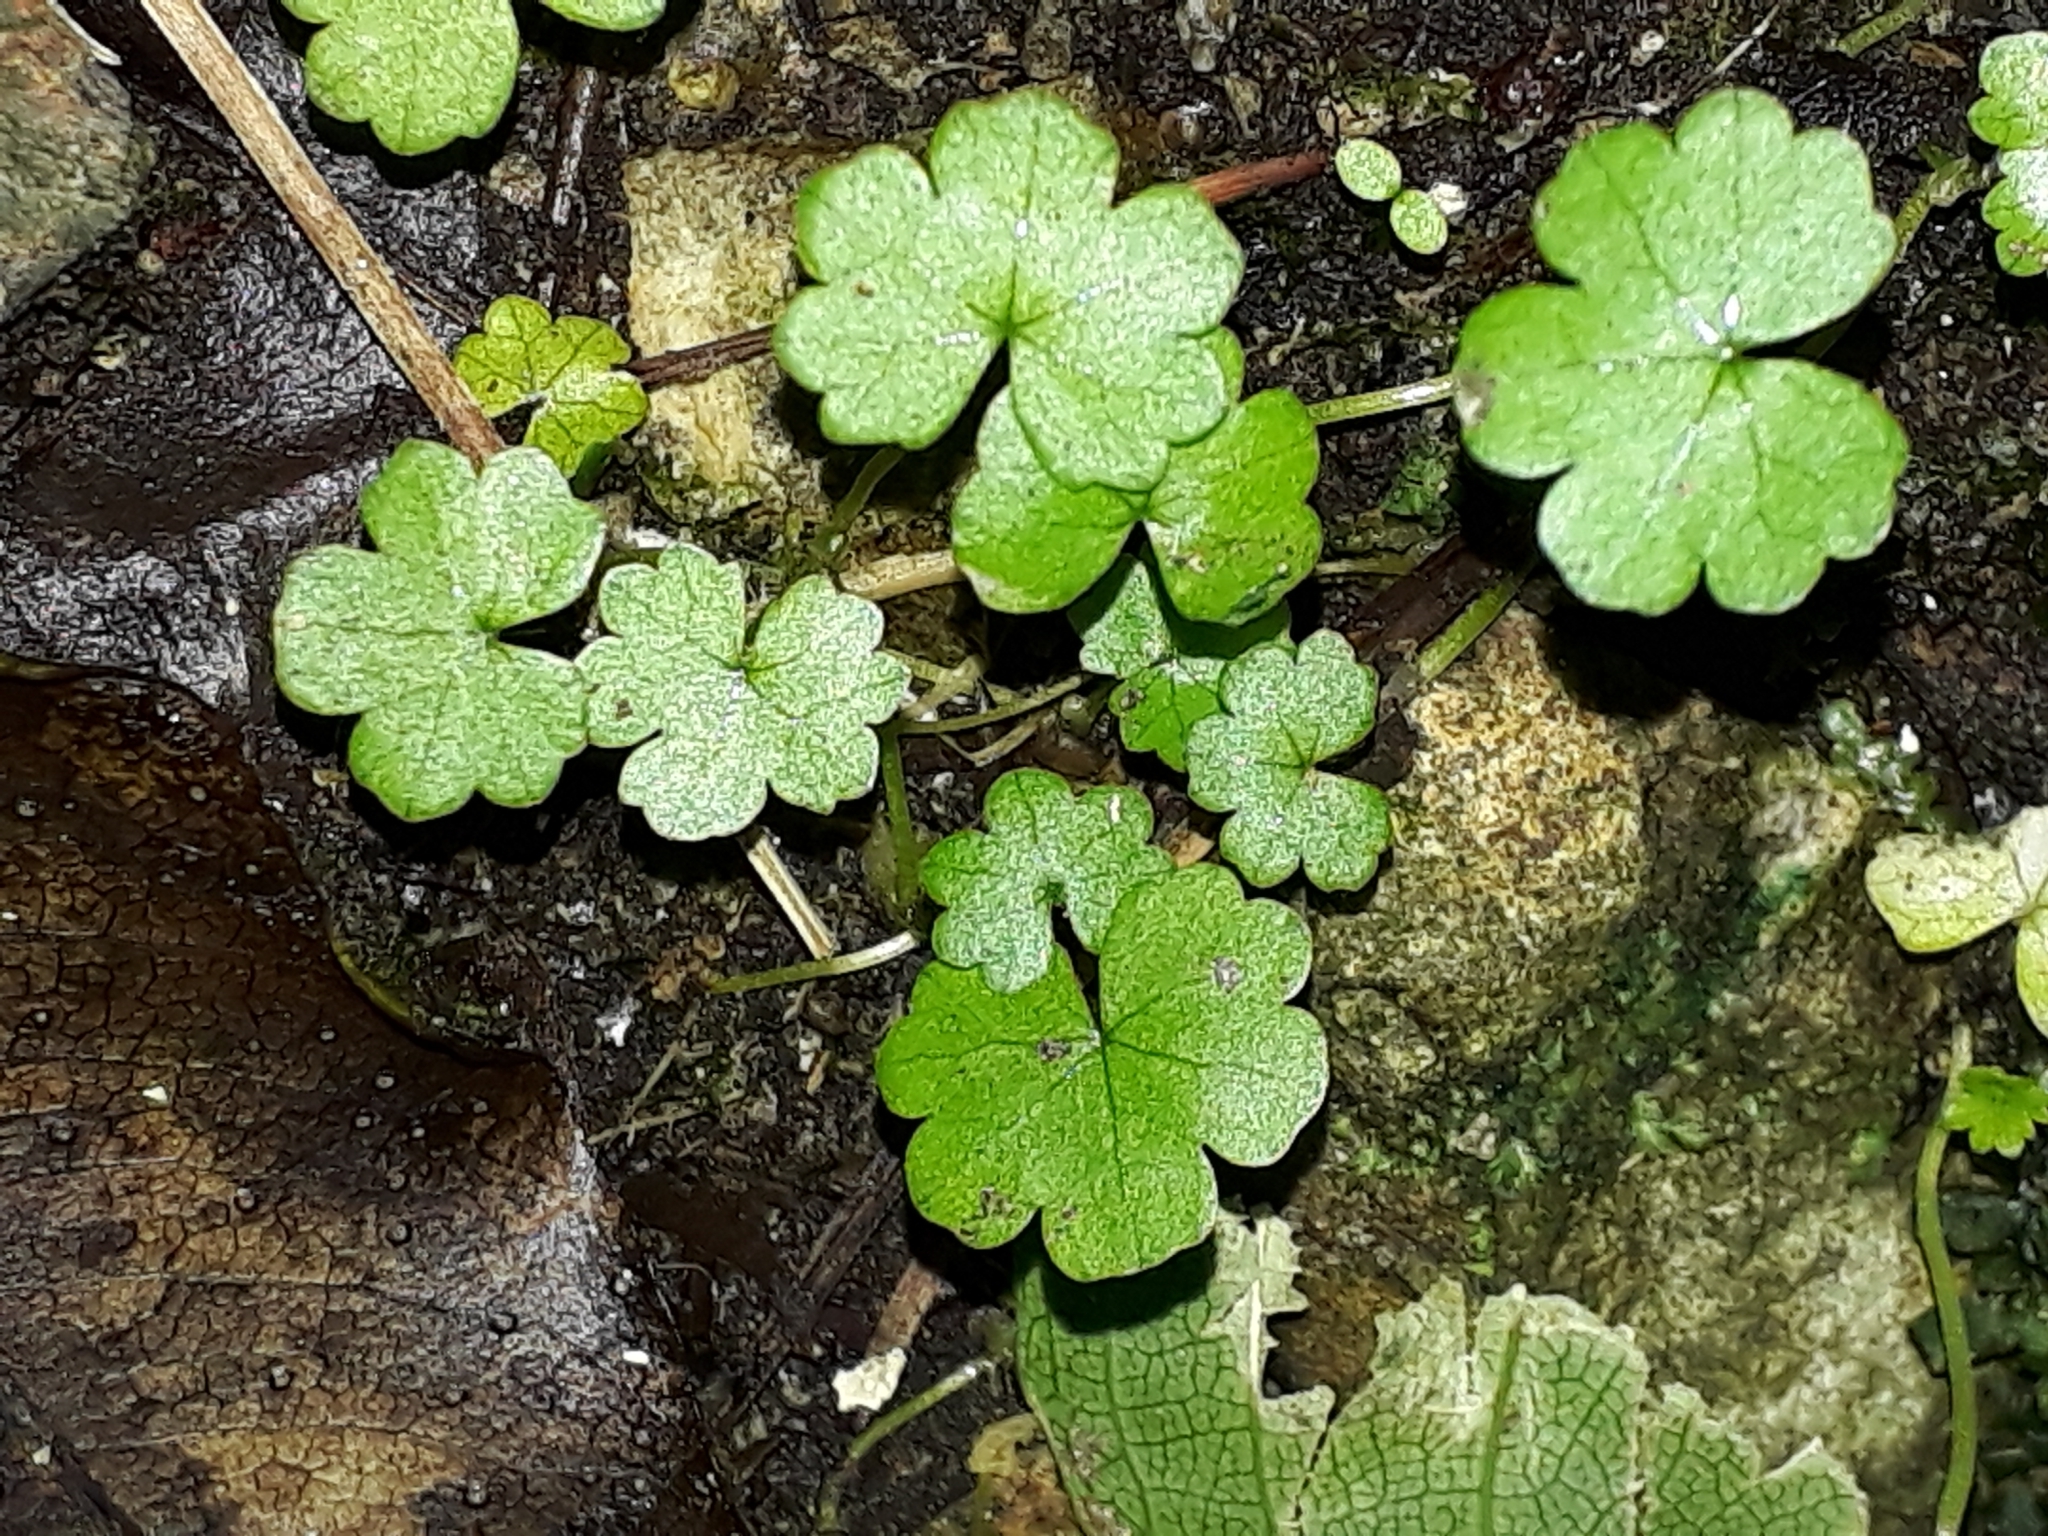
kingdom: Plantae
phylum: Tracheophyta
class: Magnoliopsida
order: Apiales
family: Araliaceae
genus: Hydrocotyle
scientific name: Hydrocotyle heteromeria
